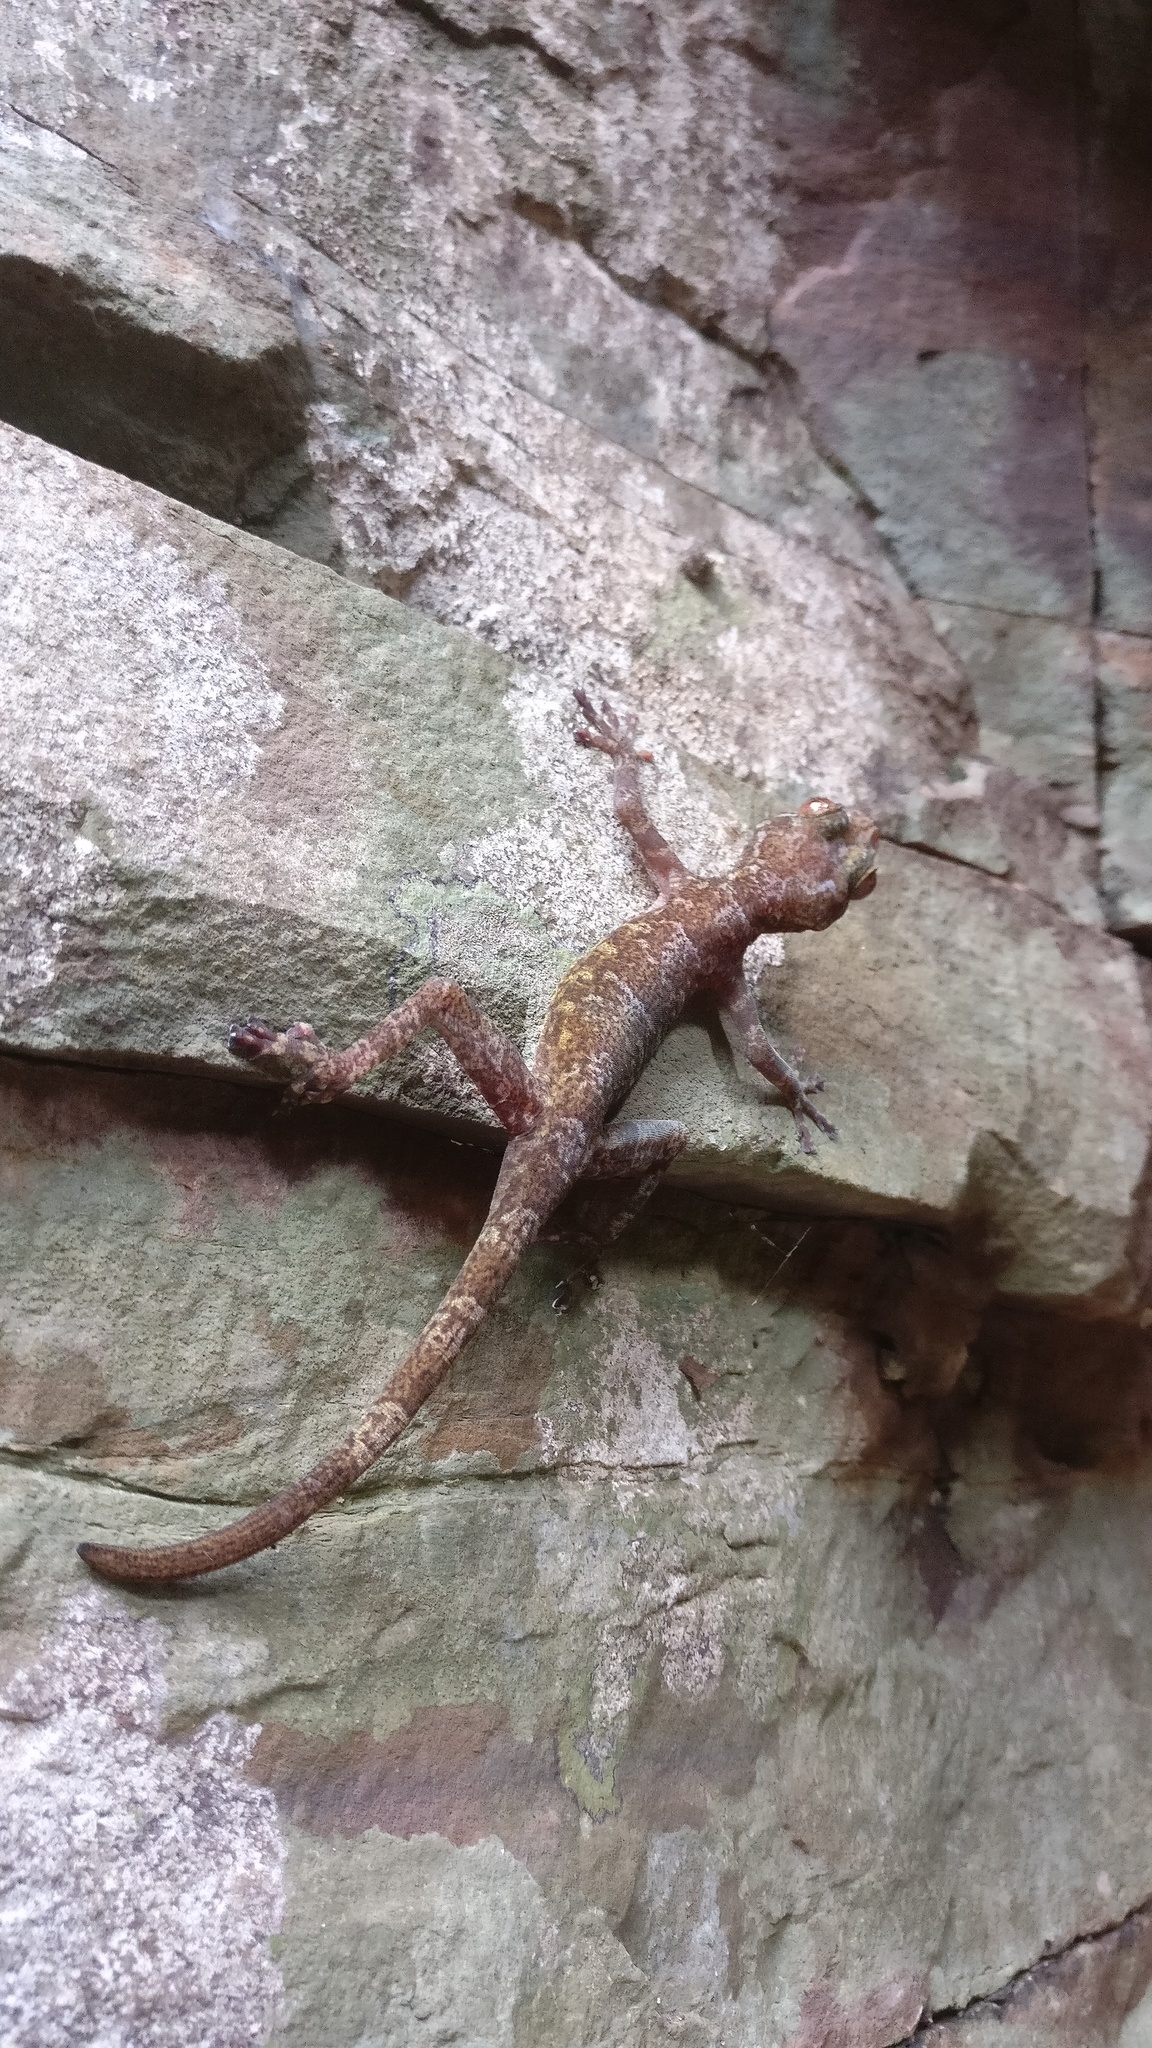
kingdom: Animalia
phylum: Chordata
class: Squamata
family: Gekkonidae
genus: Calodactylodes
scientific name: Calodactylodes aureus
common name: Indian golden gecko
